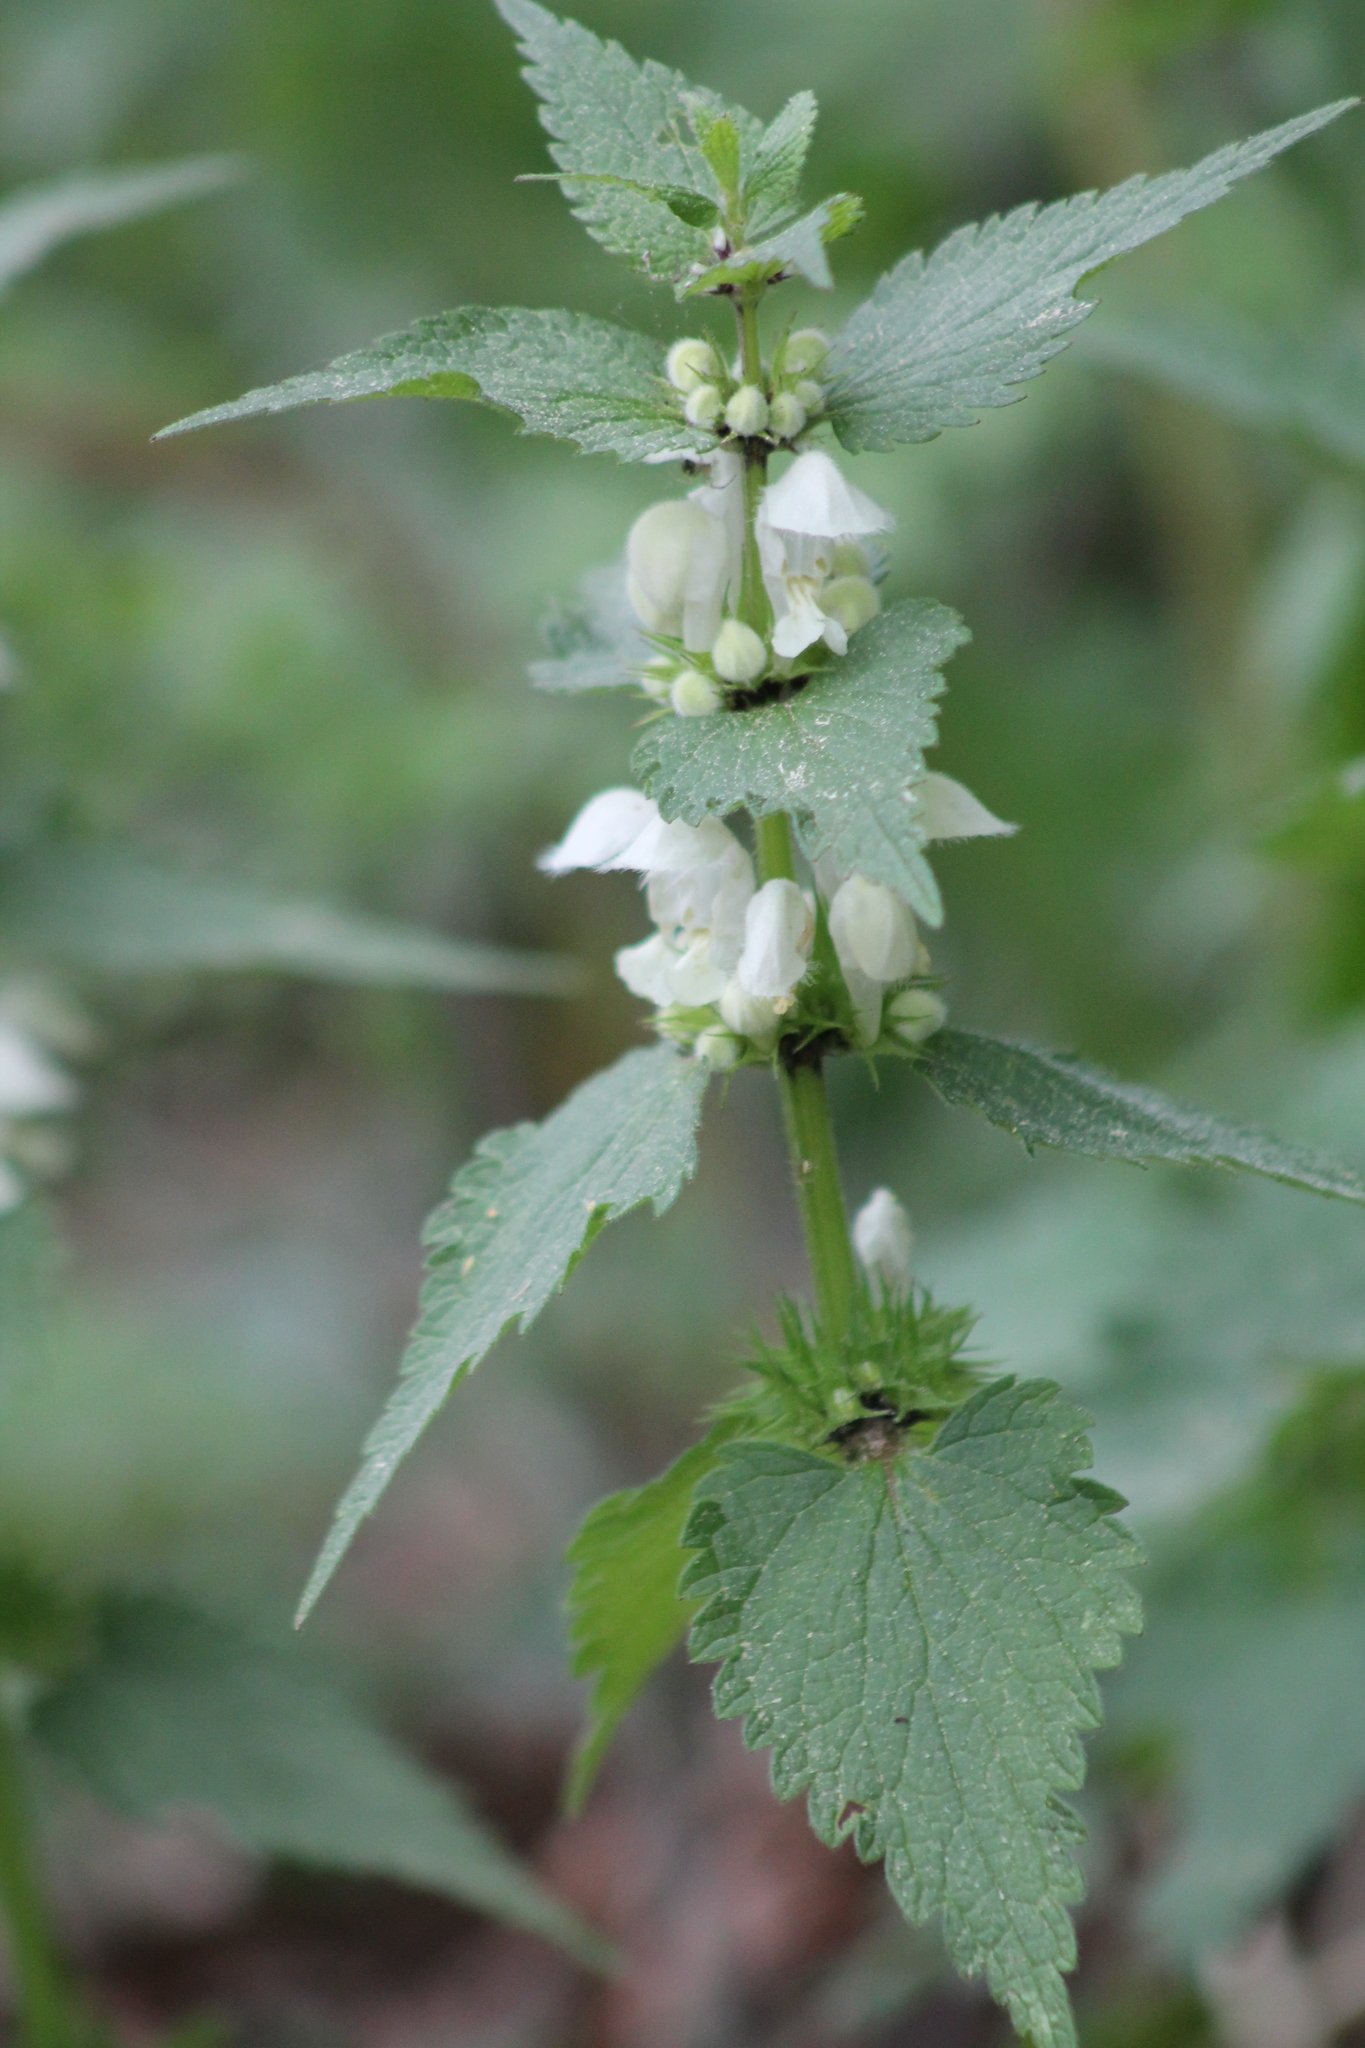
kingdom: Plantae
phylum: Tracheophyta
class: Magnoliopsida
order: Lamiales
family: Lamiaceae
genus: Lamium
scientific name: Lamium album
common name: White dead-nettle
